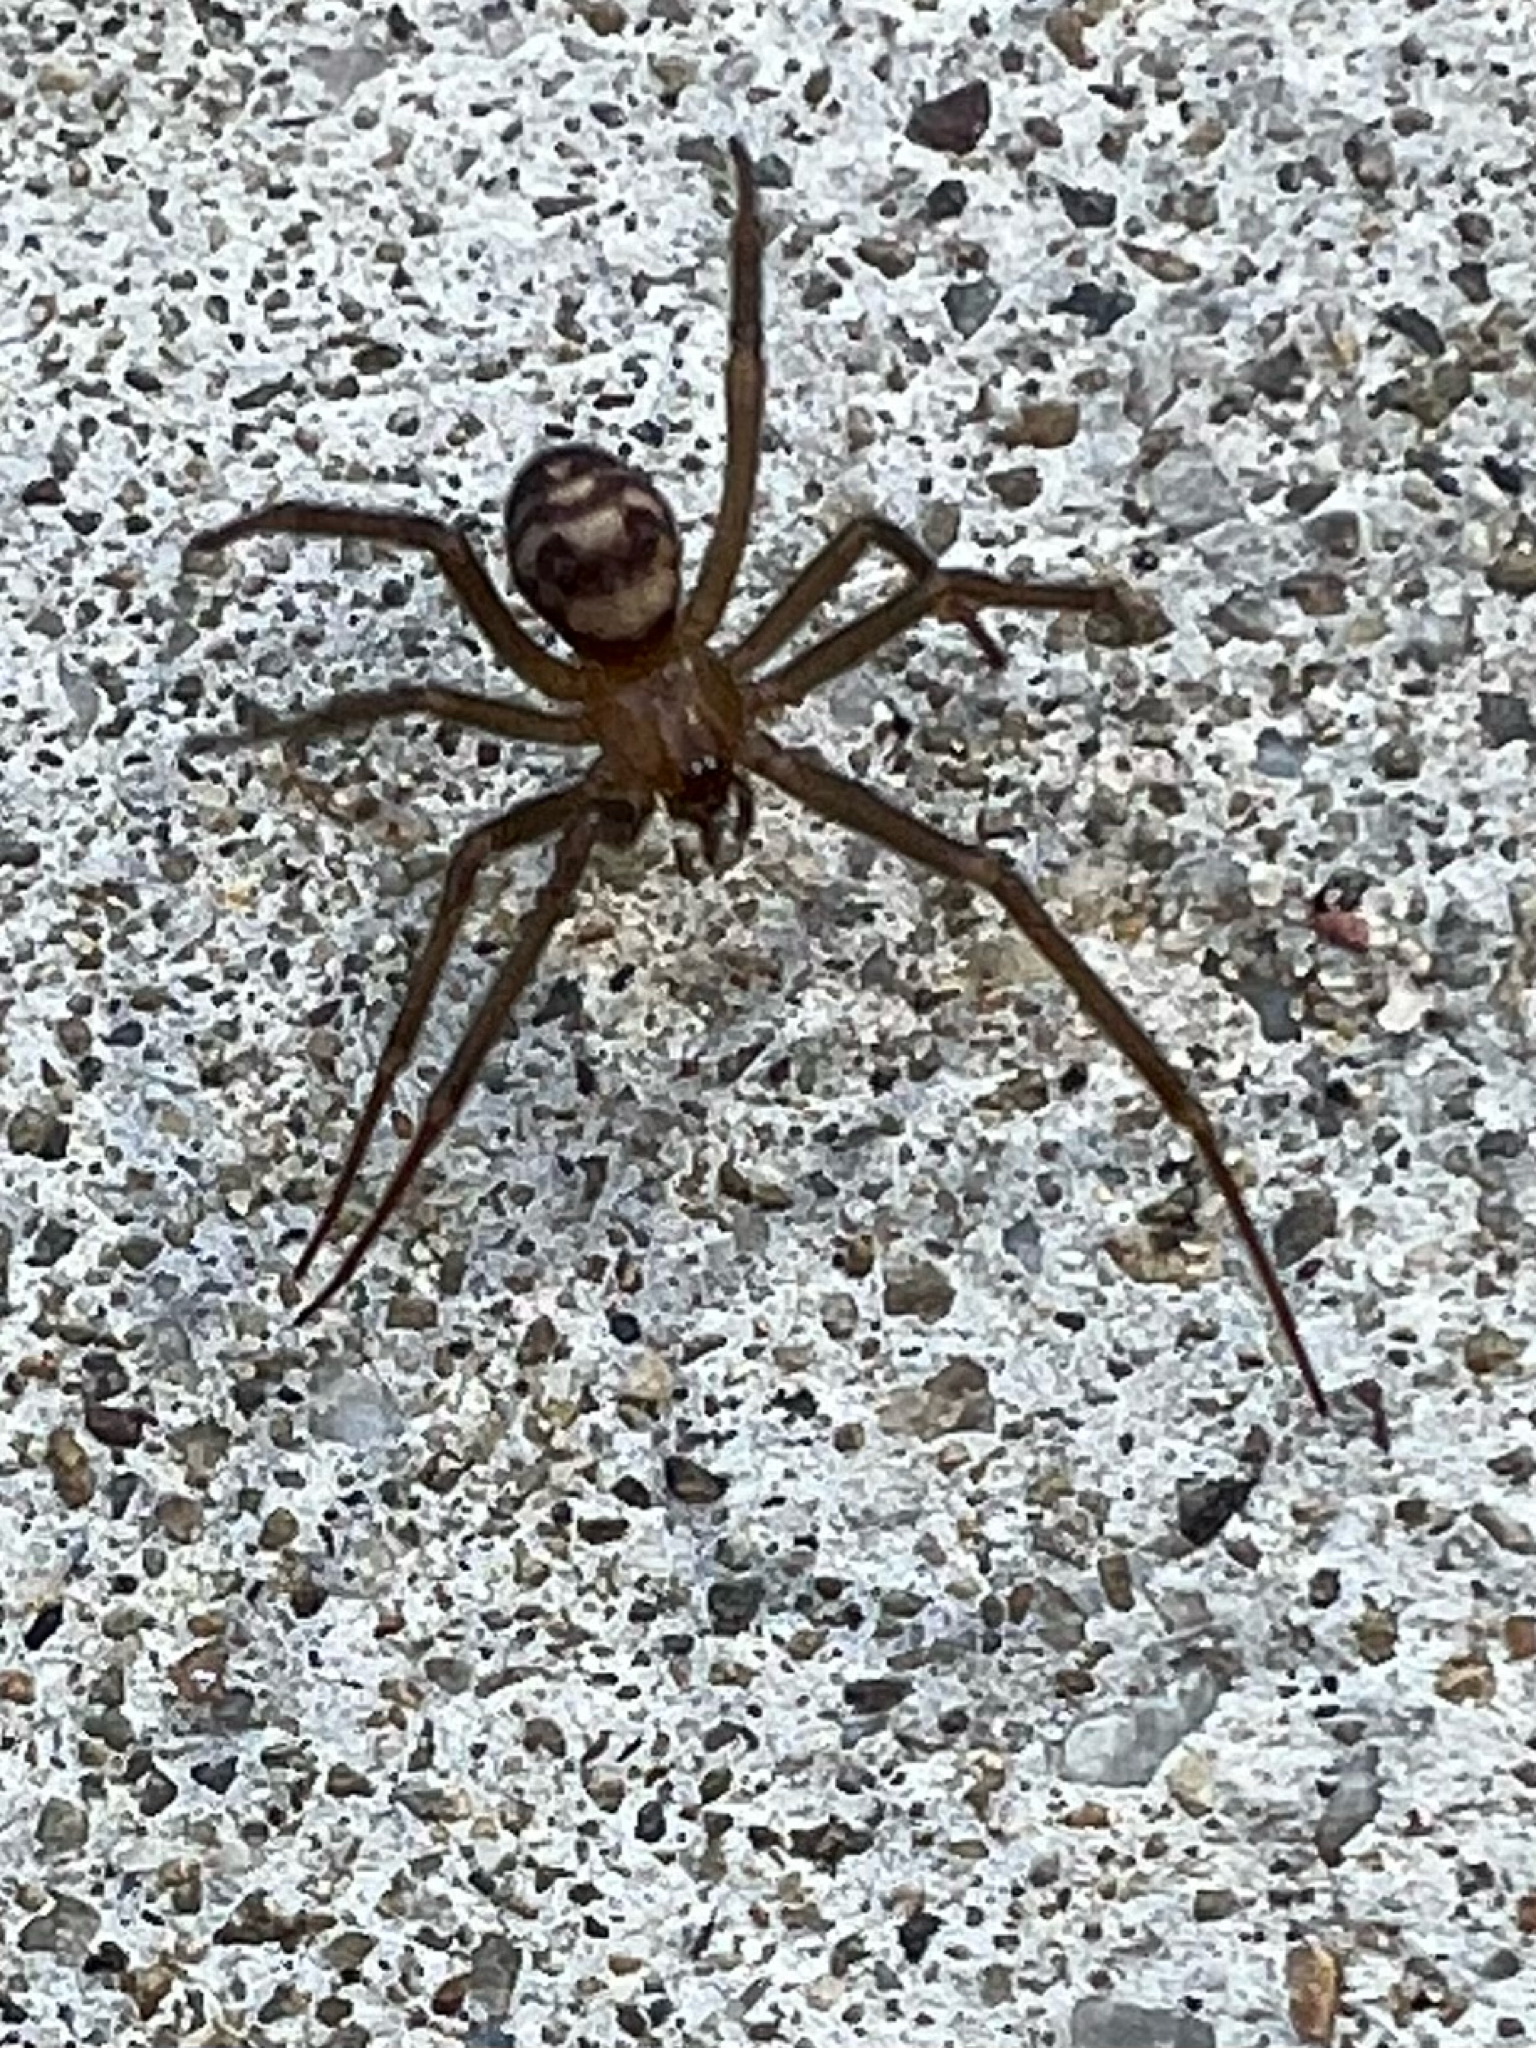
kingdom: Animalia
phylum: Arthropoda
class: Arachnida
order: Araneae
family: Theridiidae
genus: Steatoda
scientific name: Steatoda grossa
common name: False black widow
